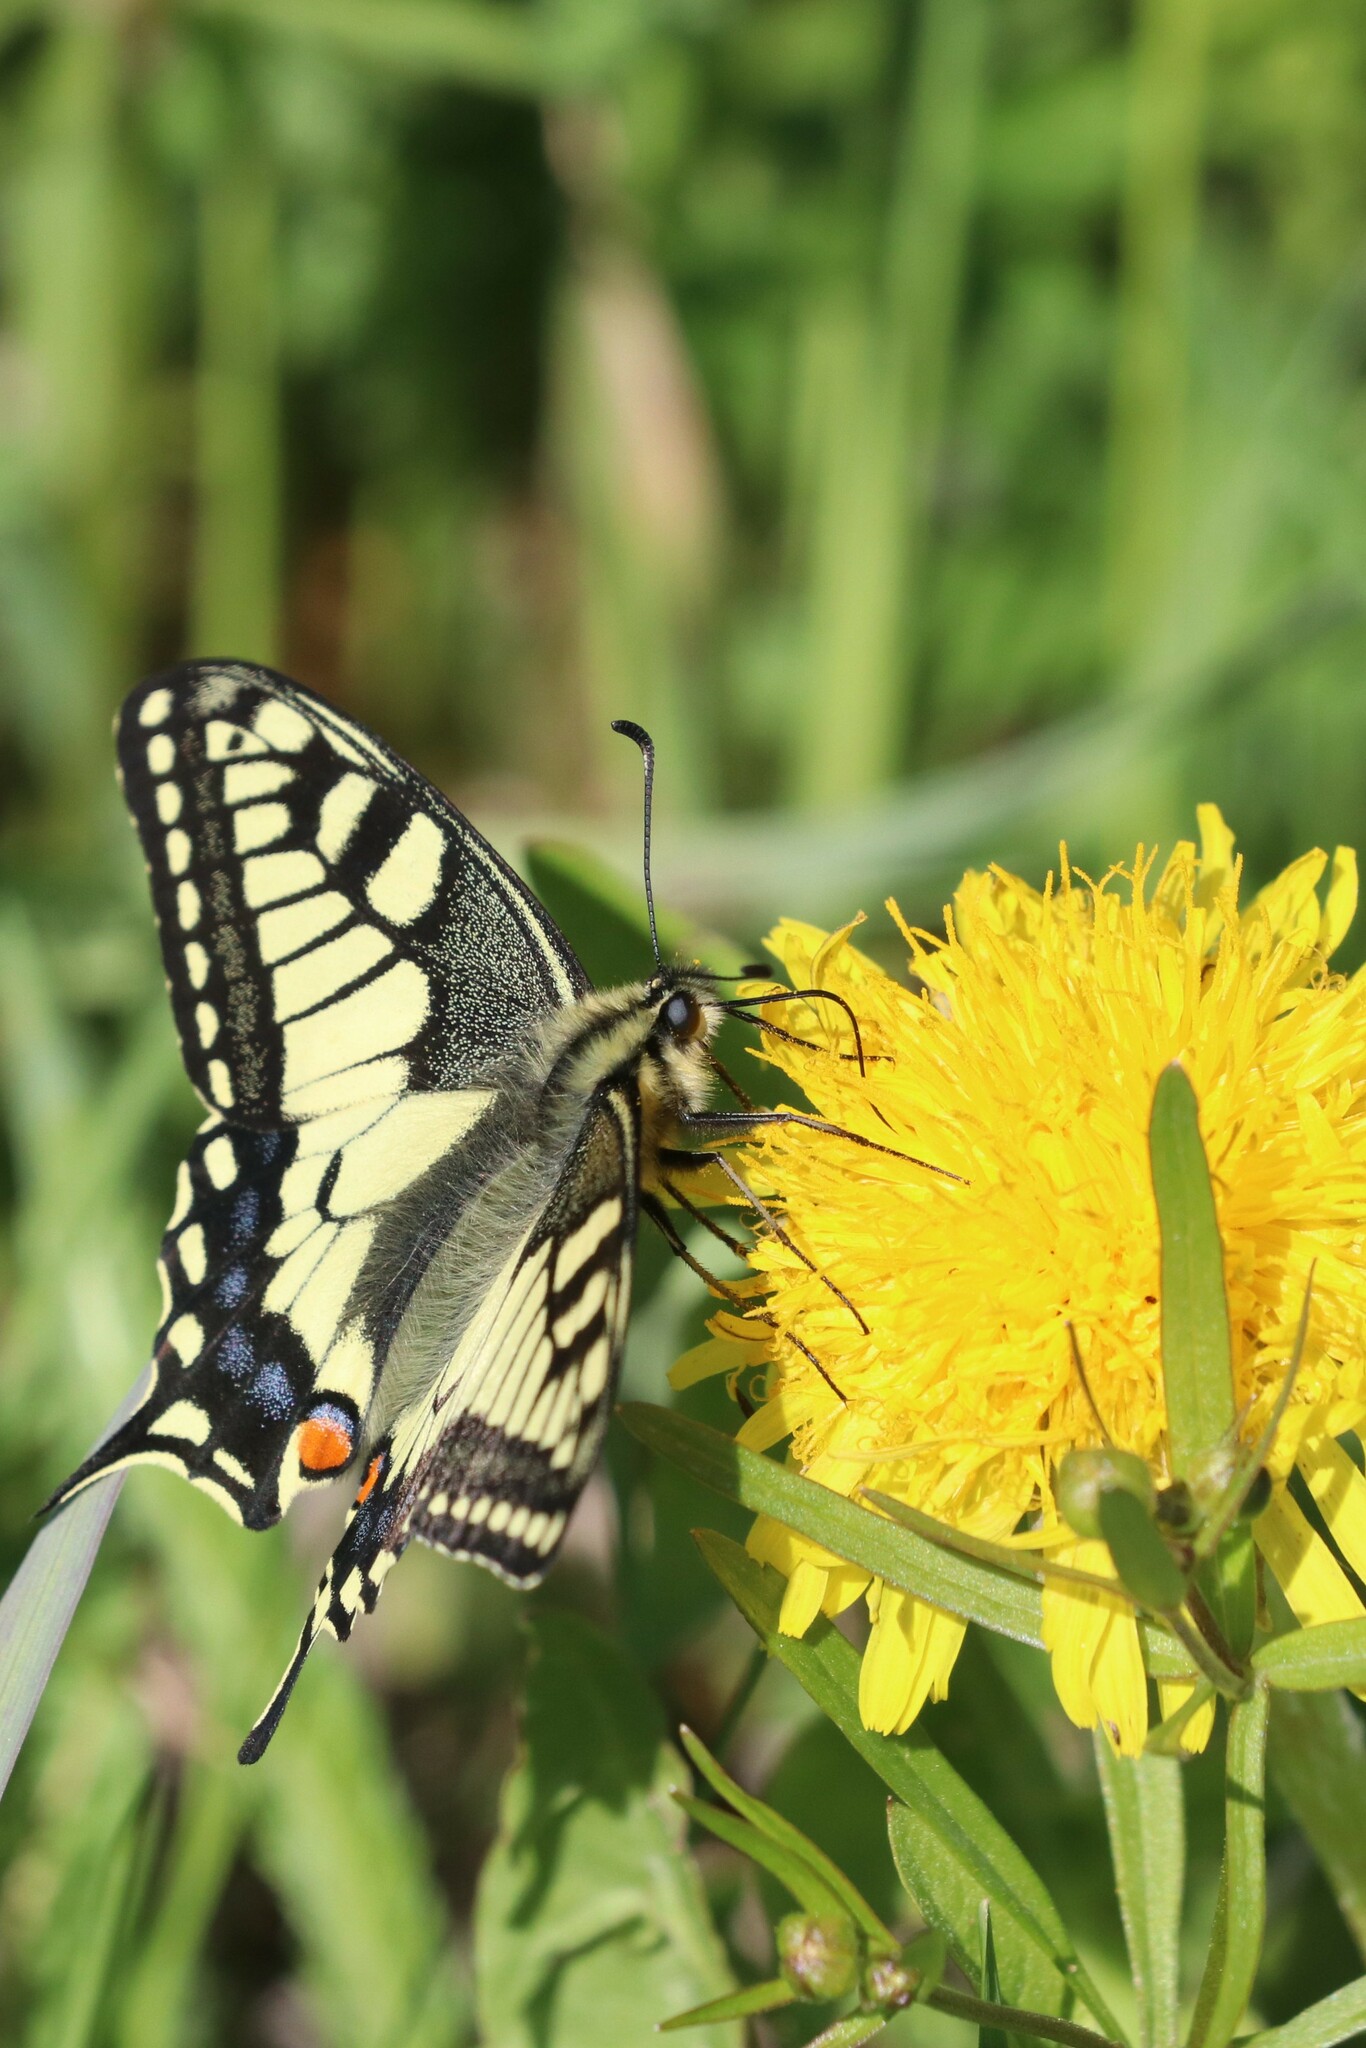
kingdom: Animalia
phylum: Arthropoda
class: Insecta
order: Lepidoptera
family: Papilionidae
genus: Papilio
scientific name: Papilio machaon
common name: Swallowtail
